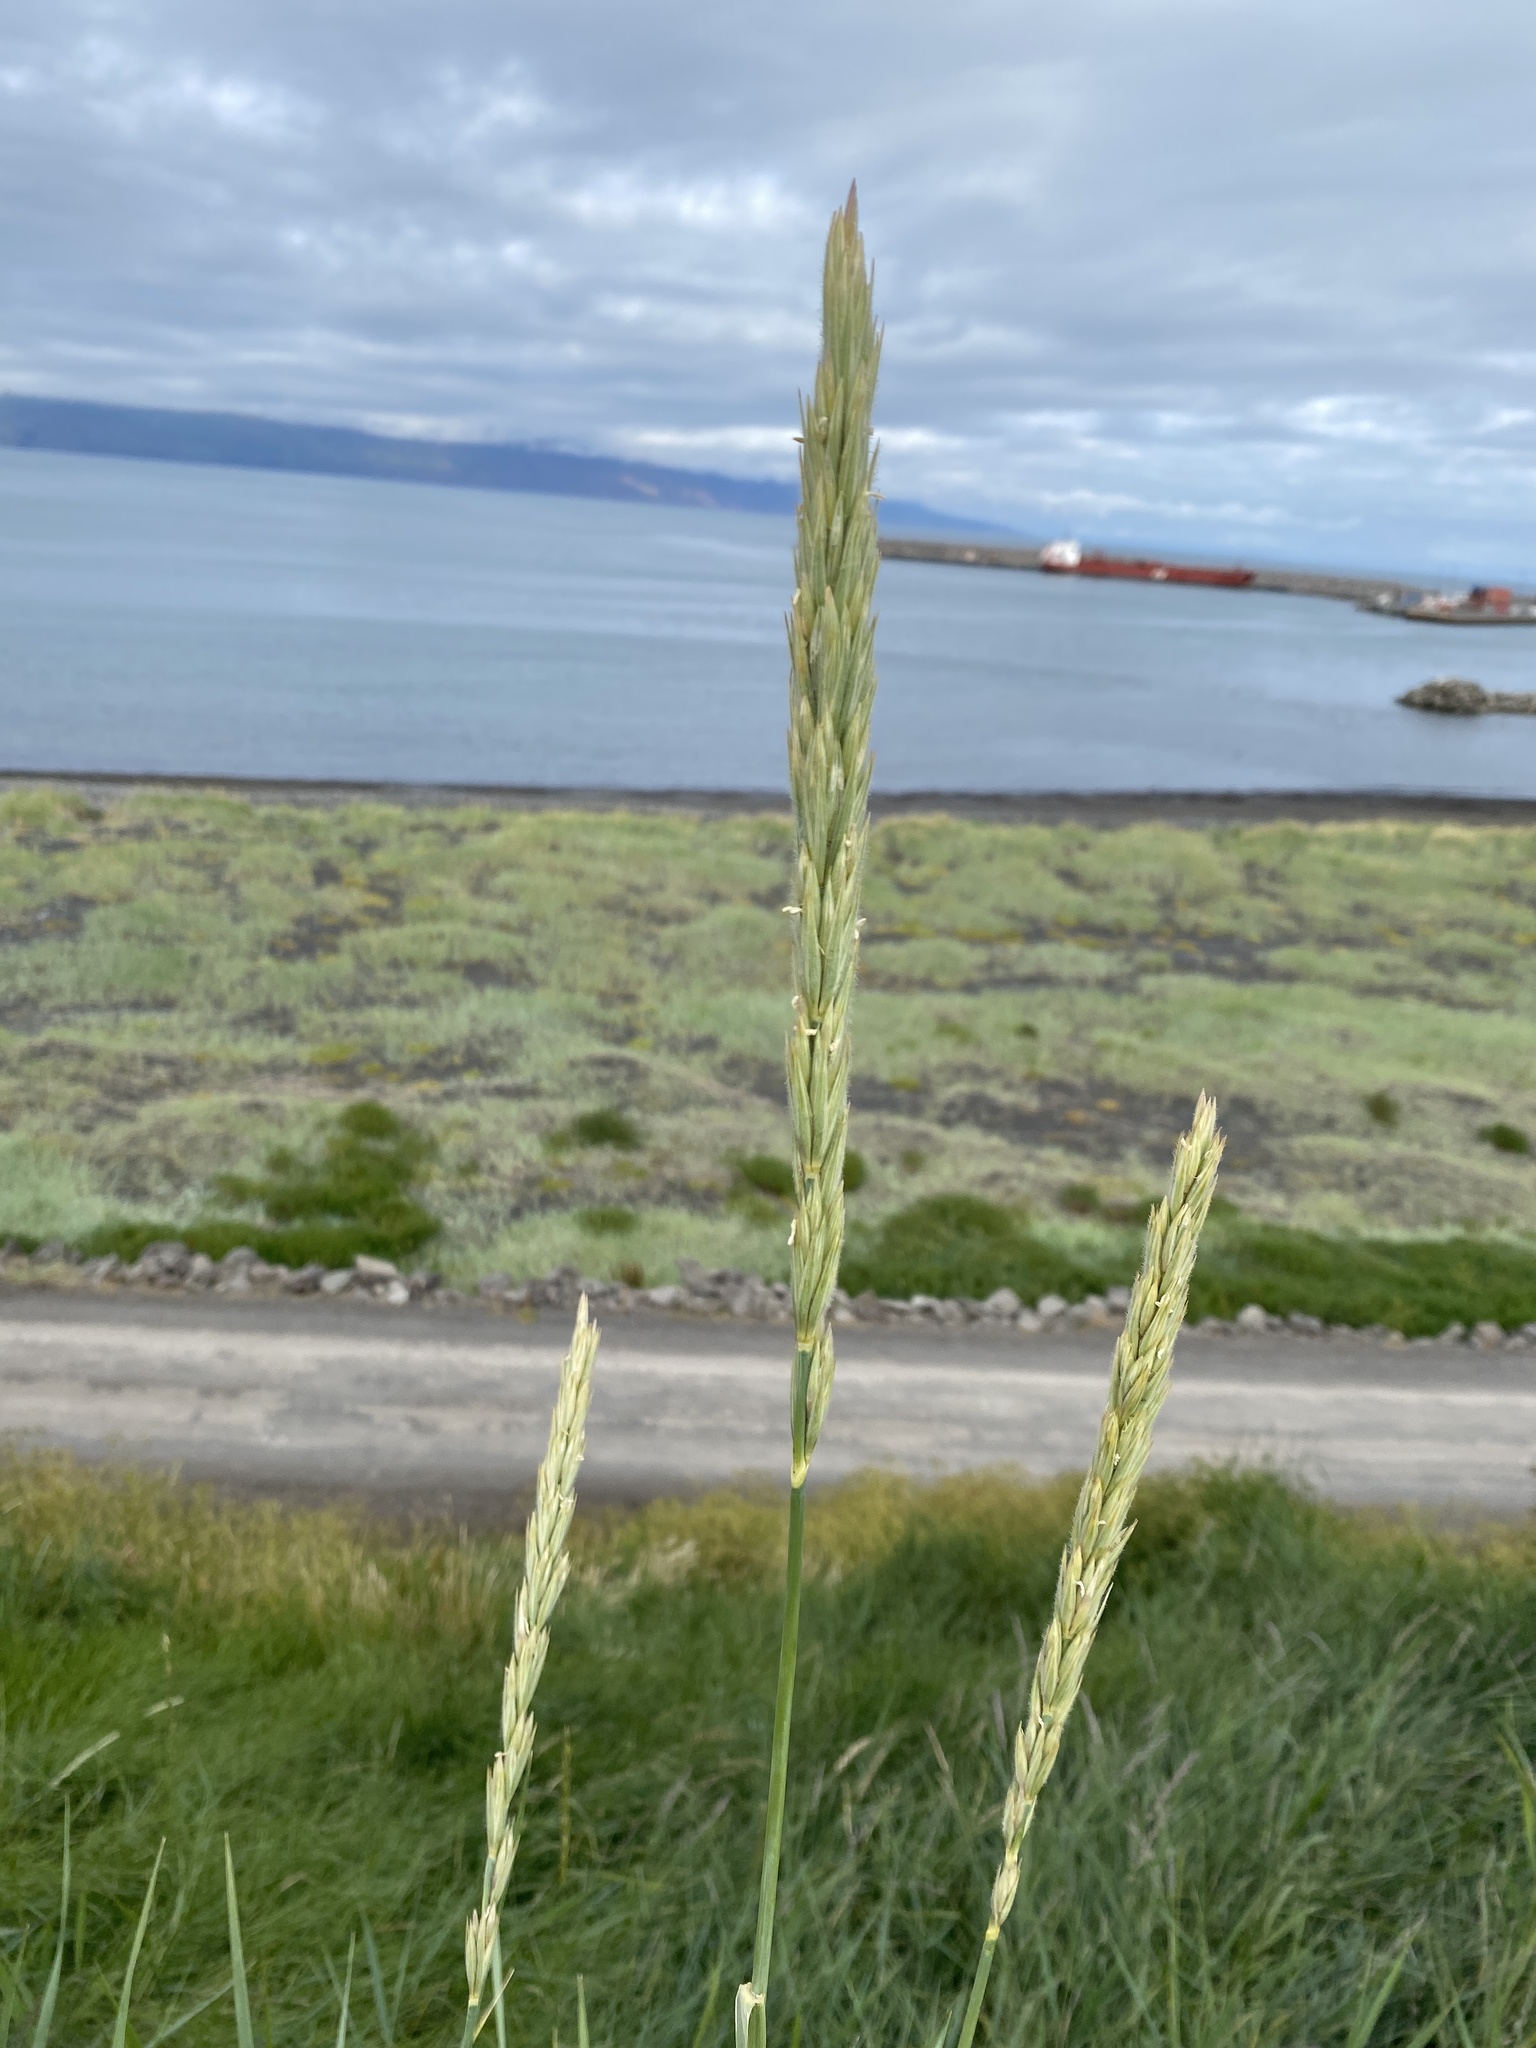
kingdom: Plantae
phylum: Tracheophyta
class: Liliopsida
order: Poales
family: Poaceae
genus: Leymus
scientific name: Leymus arenarius
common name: Lyme-grass
